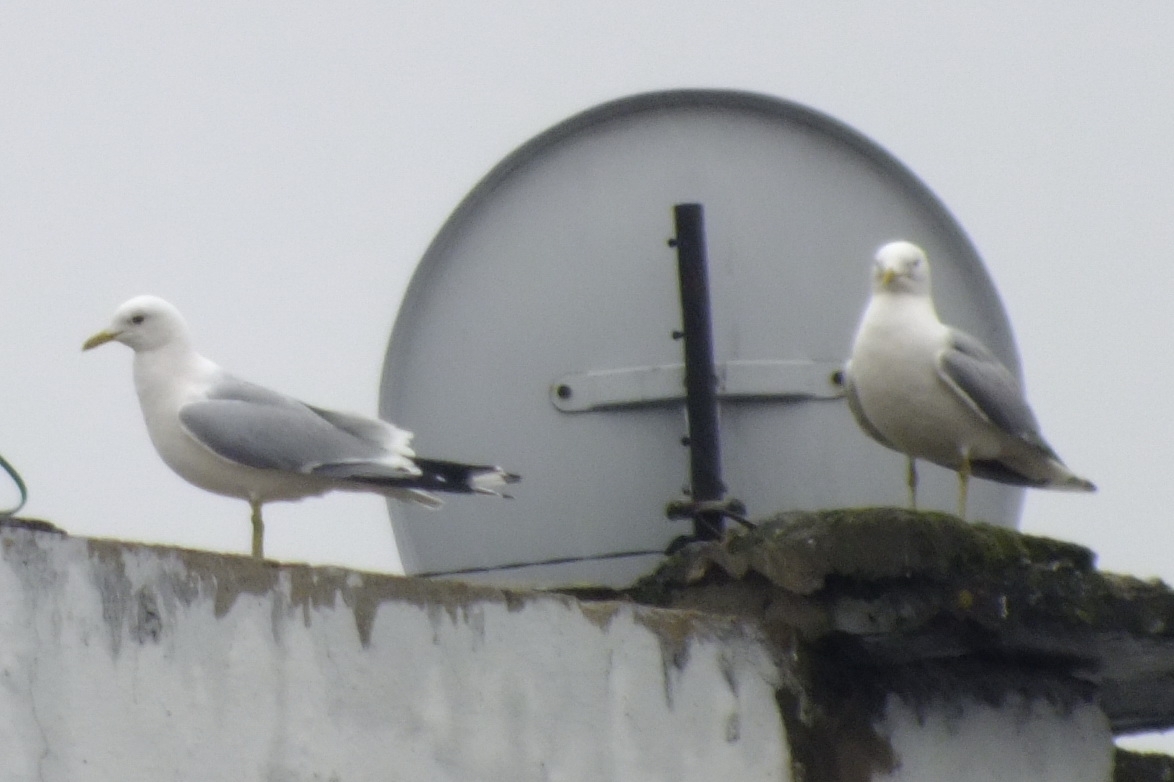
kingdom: Animalia
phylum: Chordata
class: Aves
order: Charadriiformes
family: Laridae
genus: Larus
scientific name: Larus canus
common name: Mew gull
